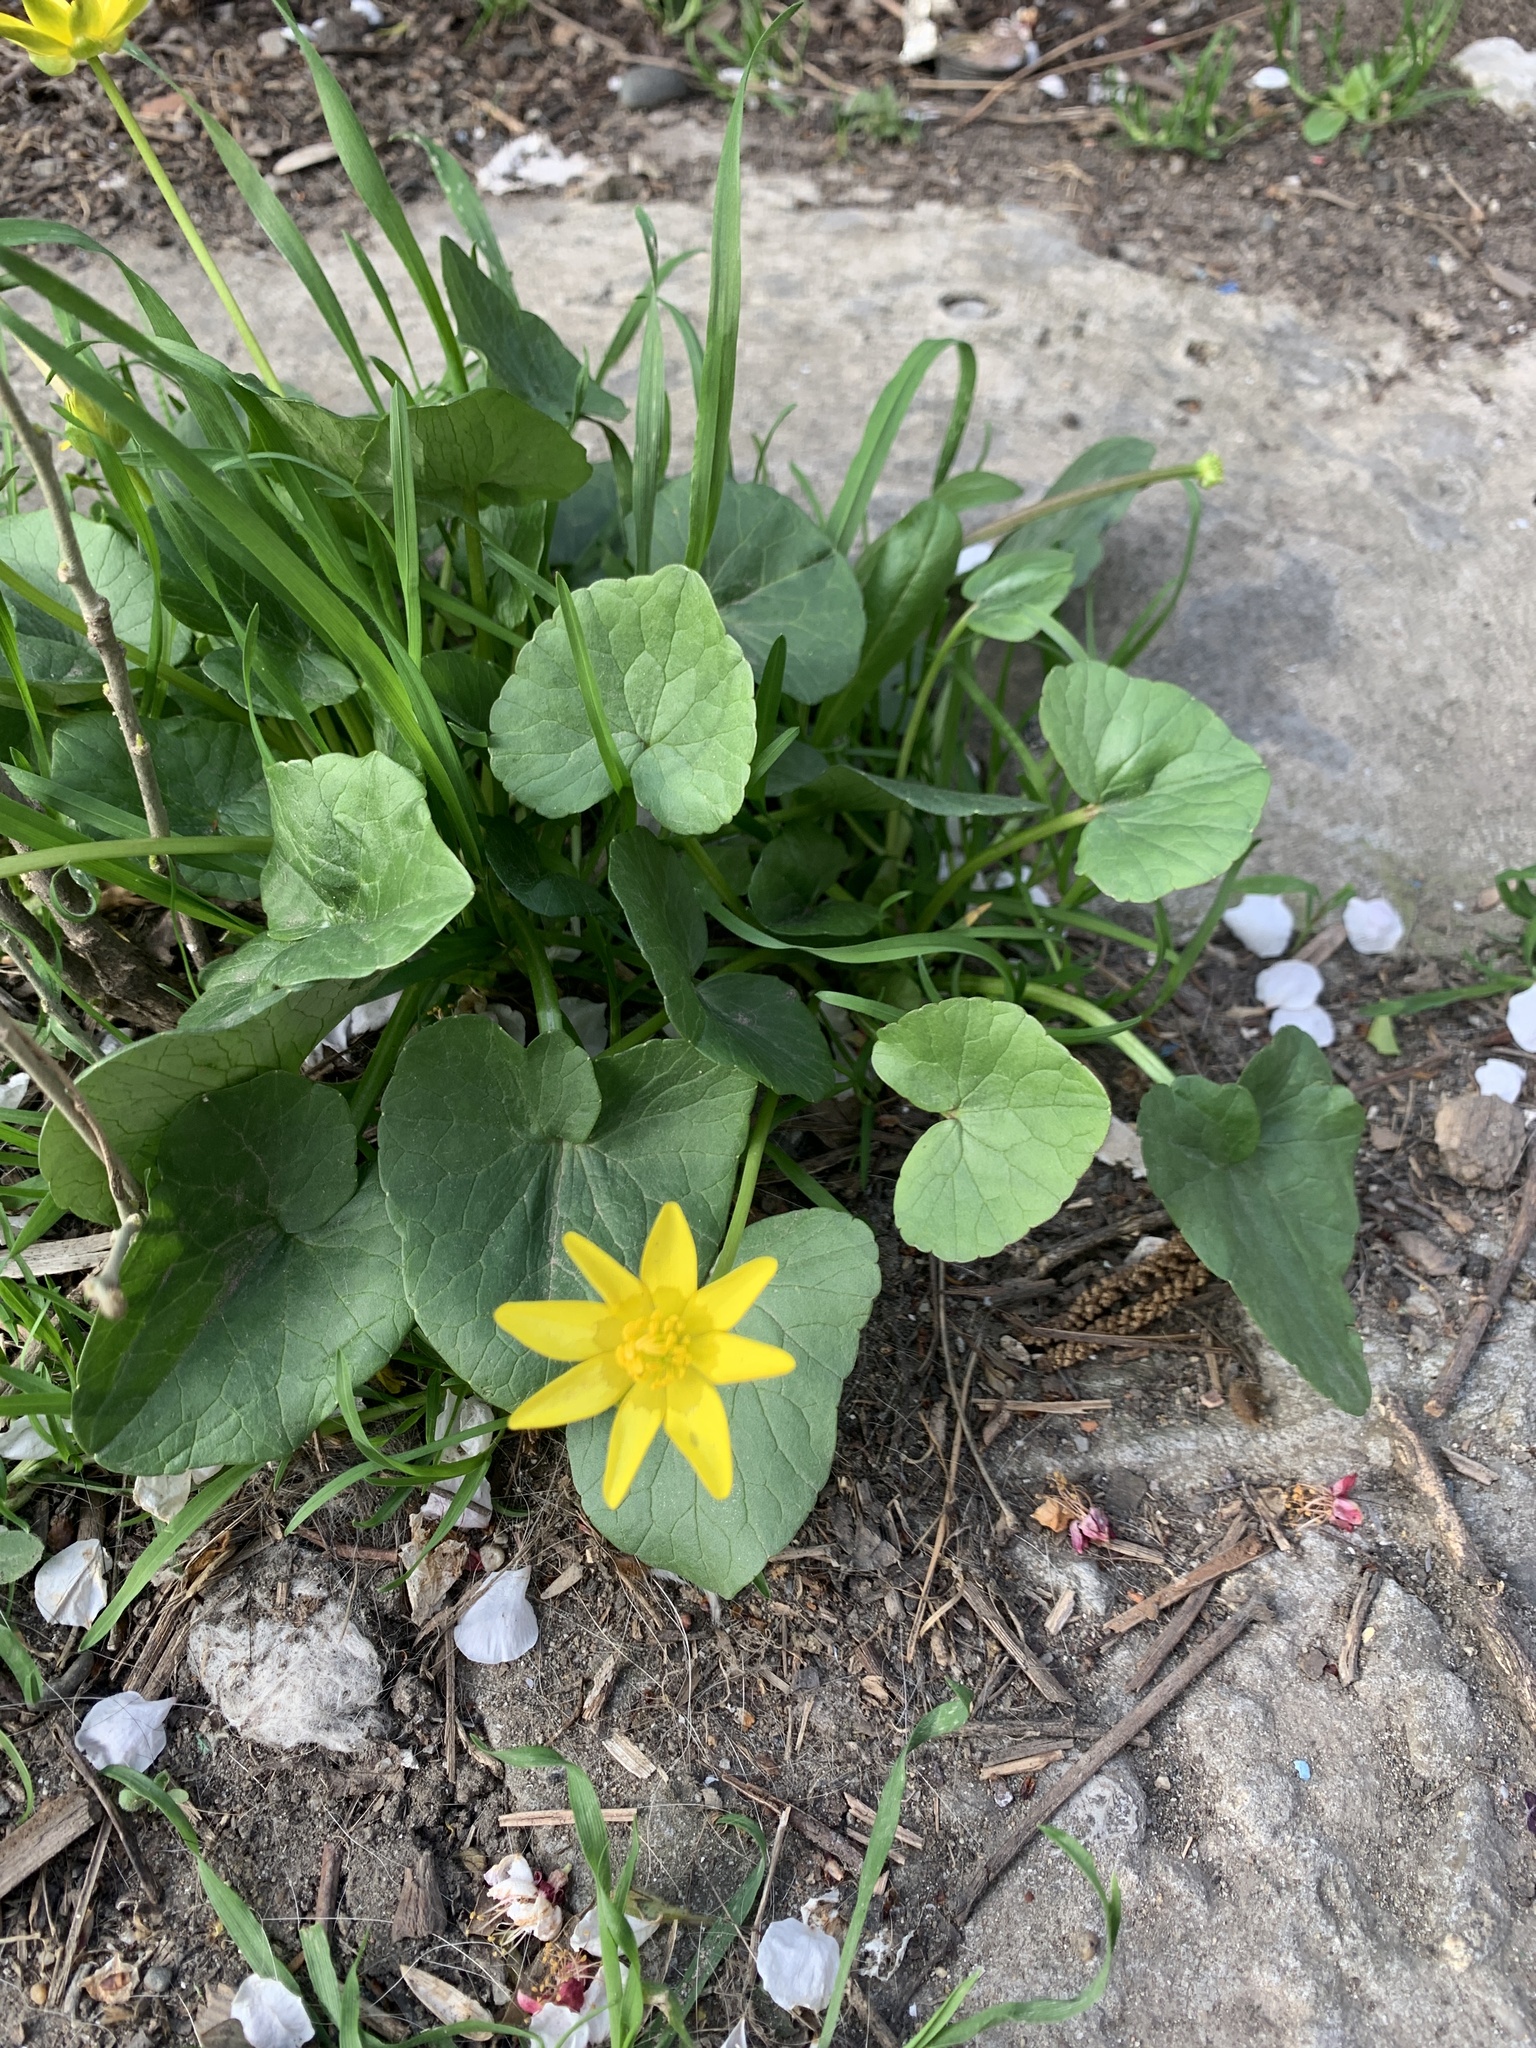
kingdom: Plantae
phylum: Tracheophyta
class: Magnoliopsida
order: Ranunculales
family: Ranunculaceae
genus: Ficaria
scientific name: Ficaria verna
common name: Lesser celandine
